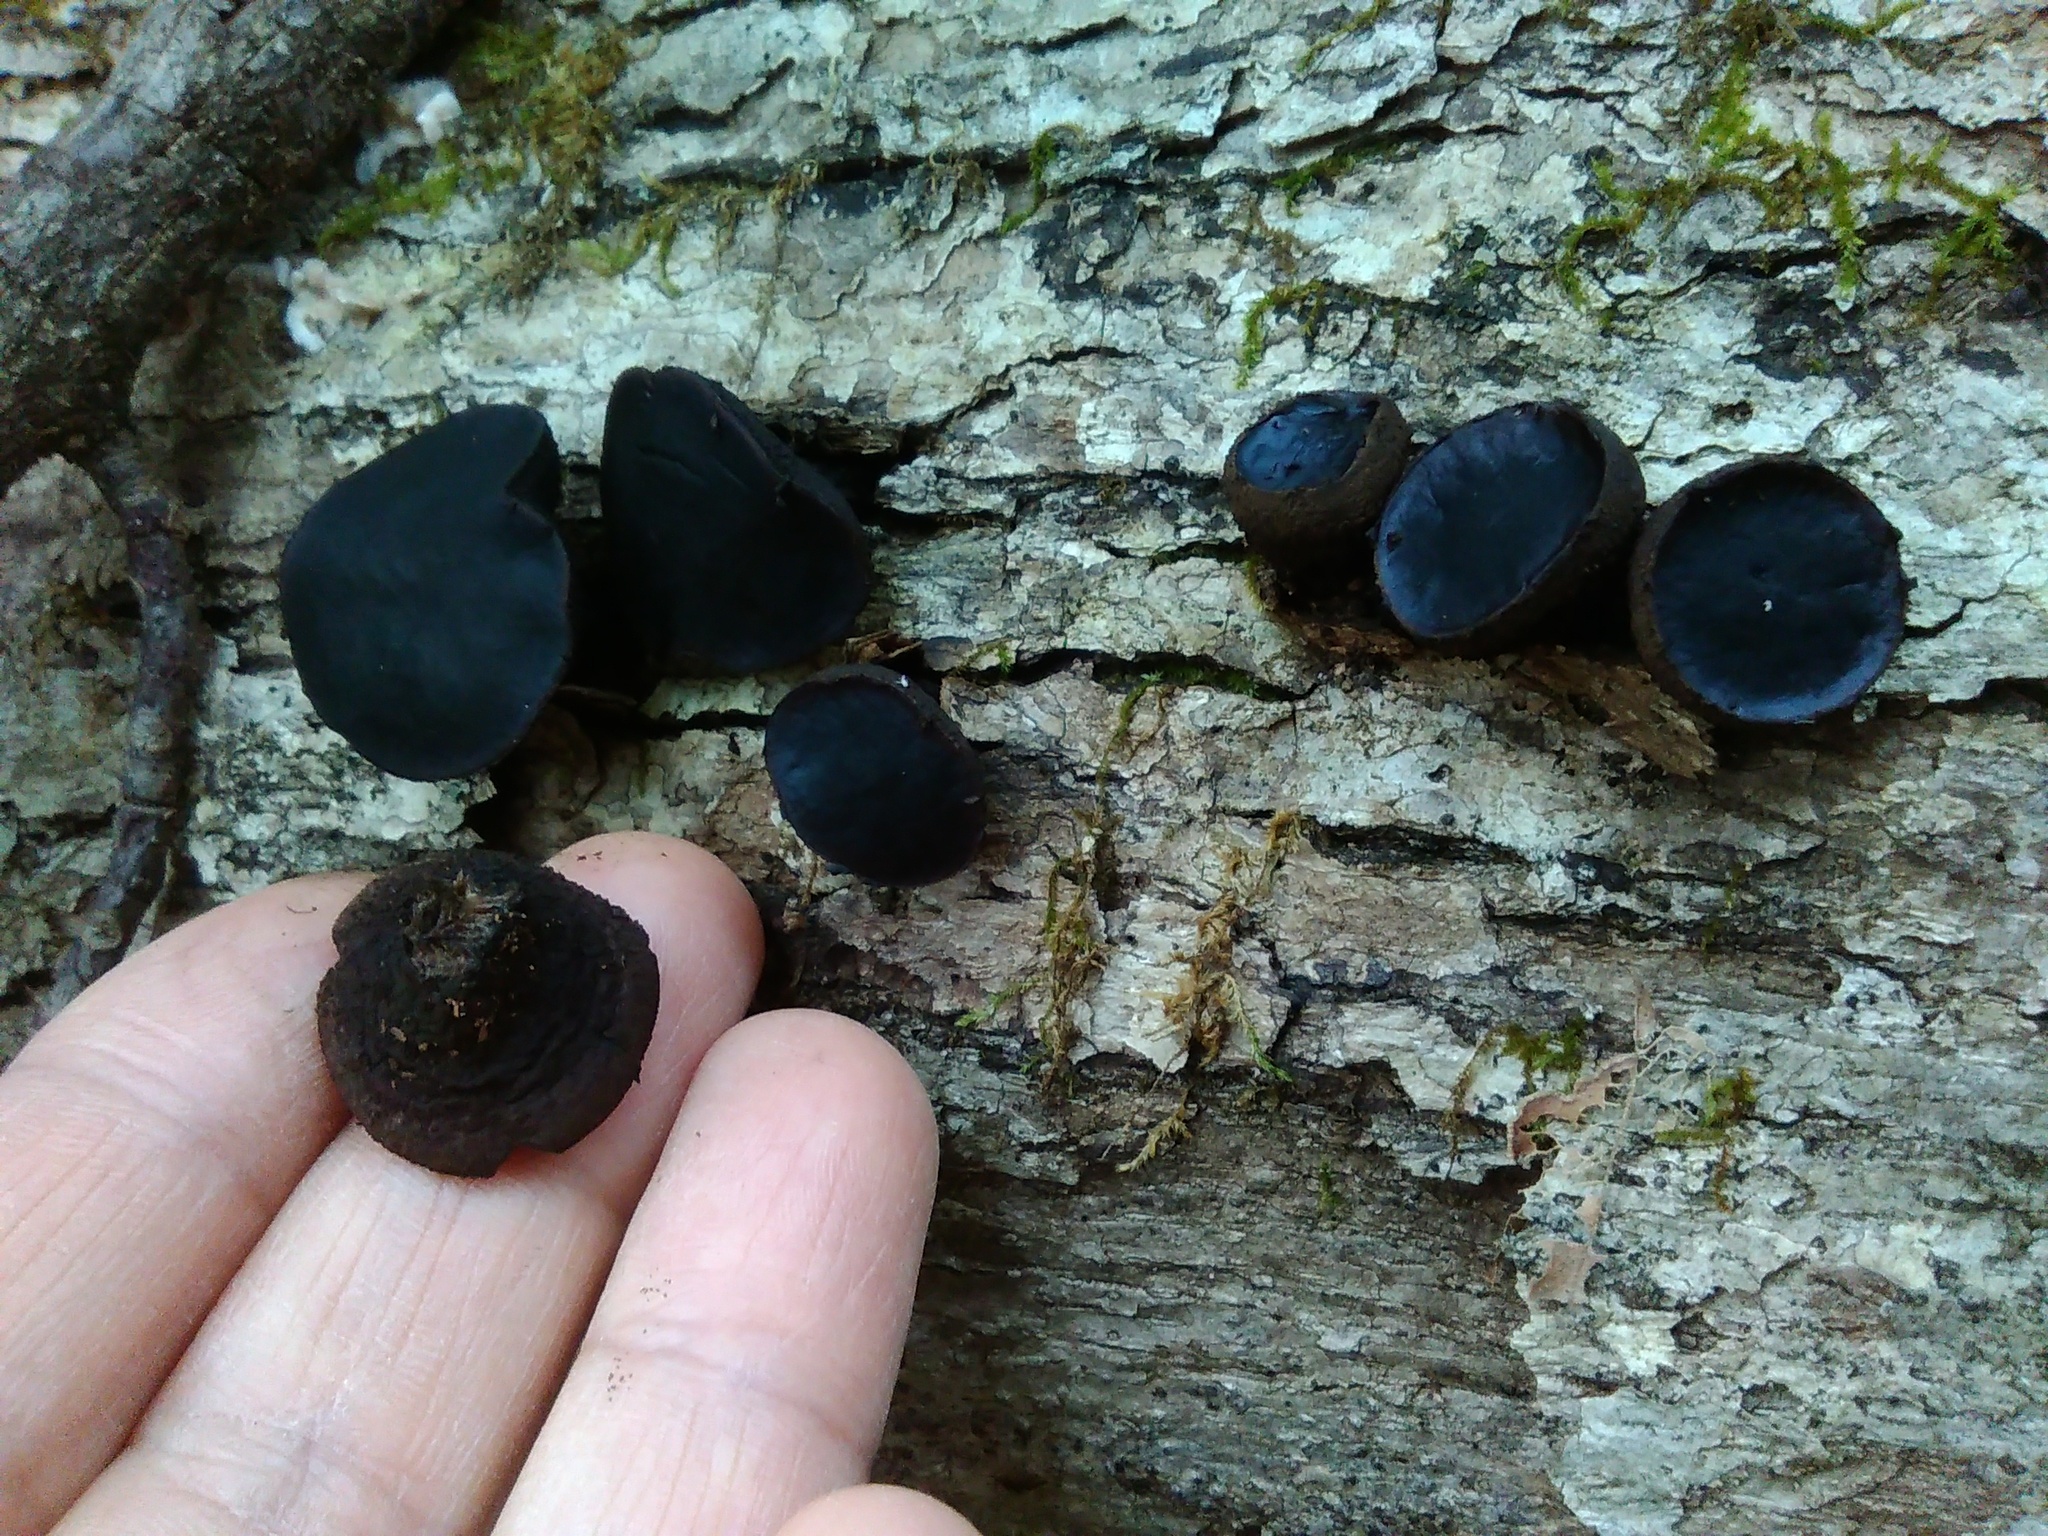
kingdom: Fungi
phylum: Ascomycota
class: Leotiomycetes
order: Phacidiales
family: Phacidiaceae
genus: Bulgaria
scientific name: Bulgaria inquinans
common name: Black bulgar
